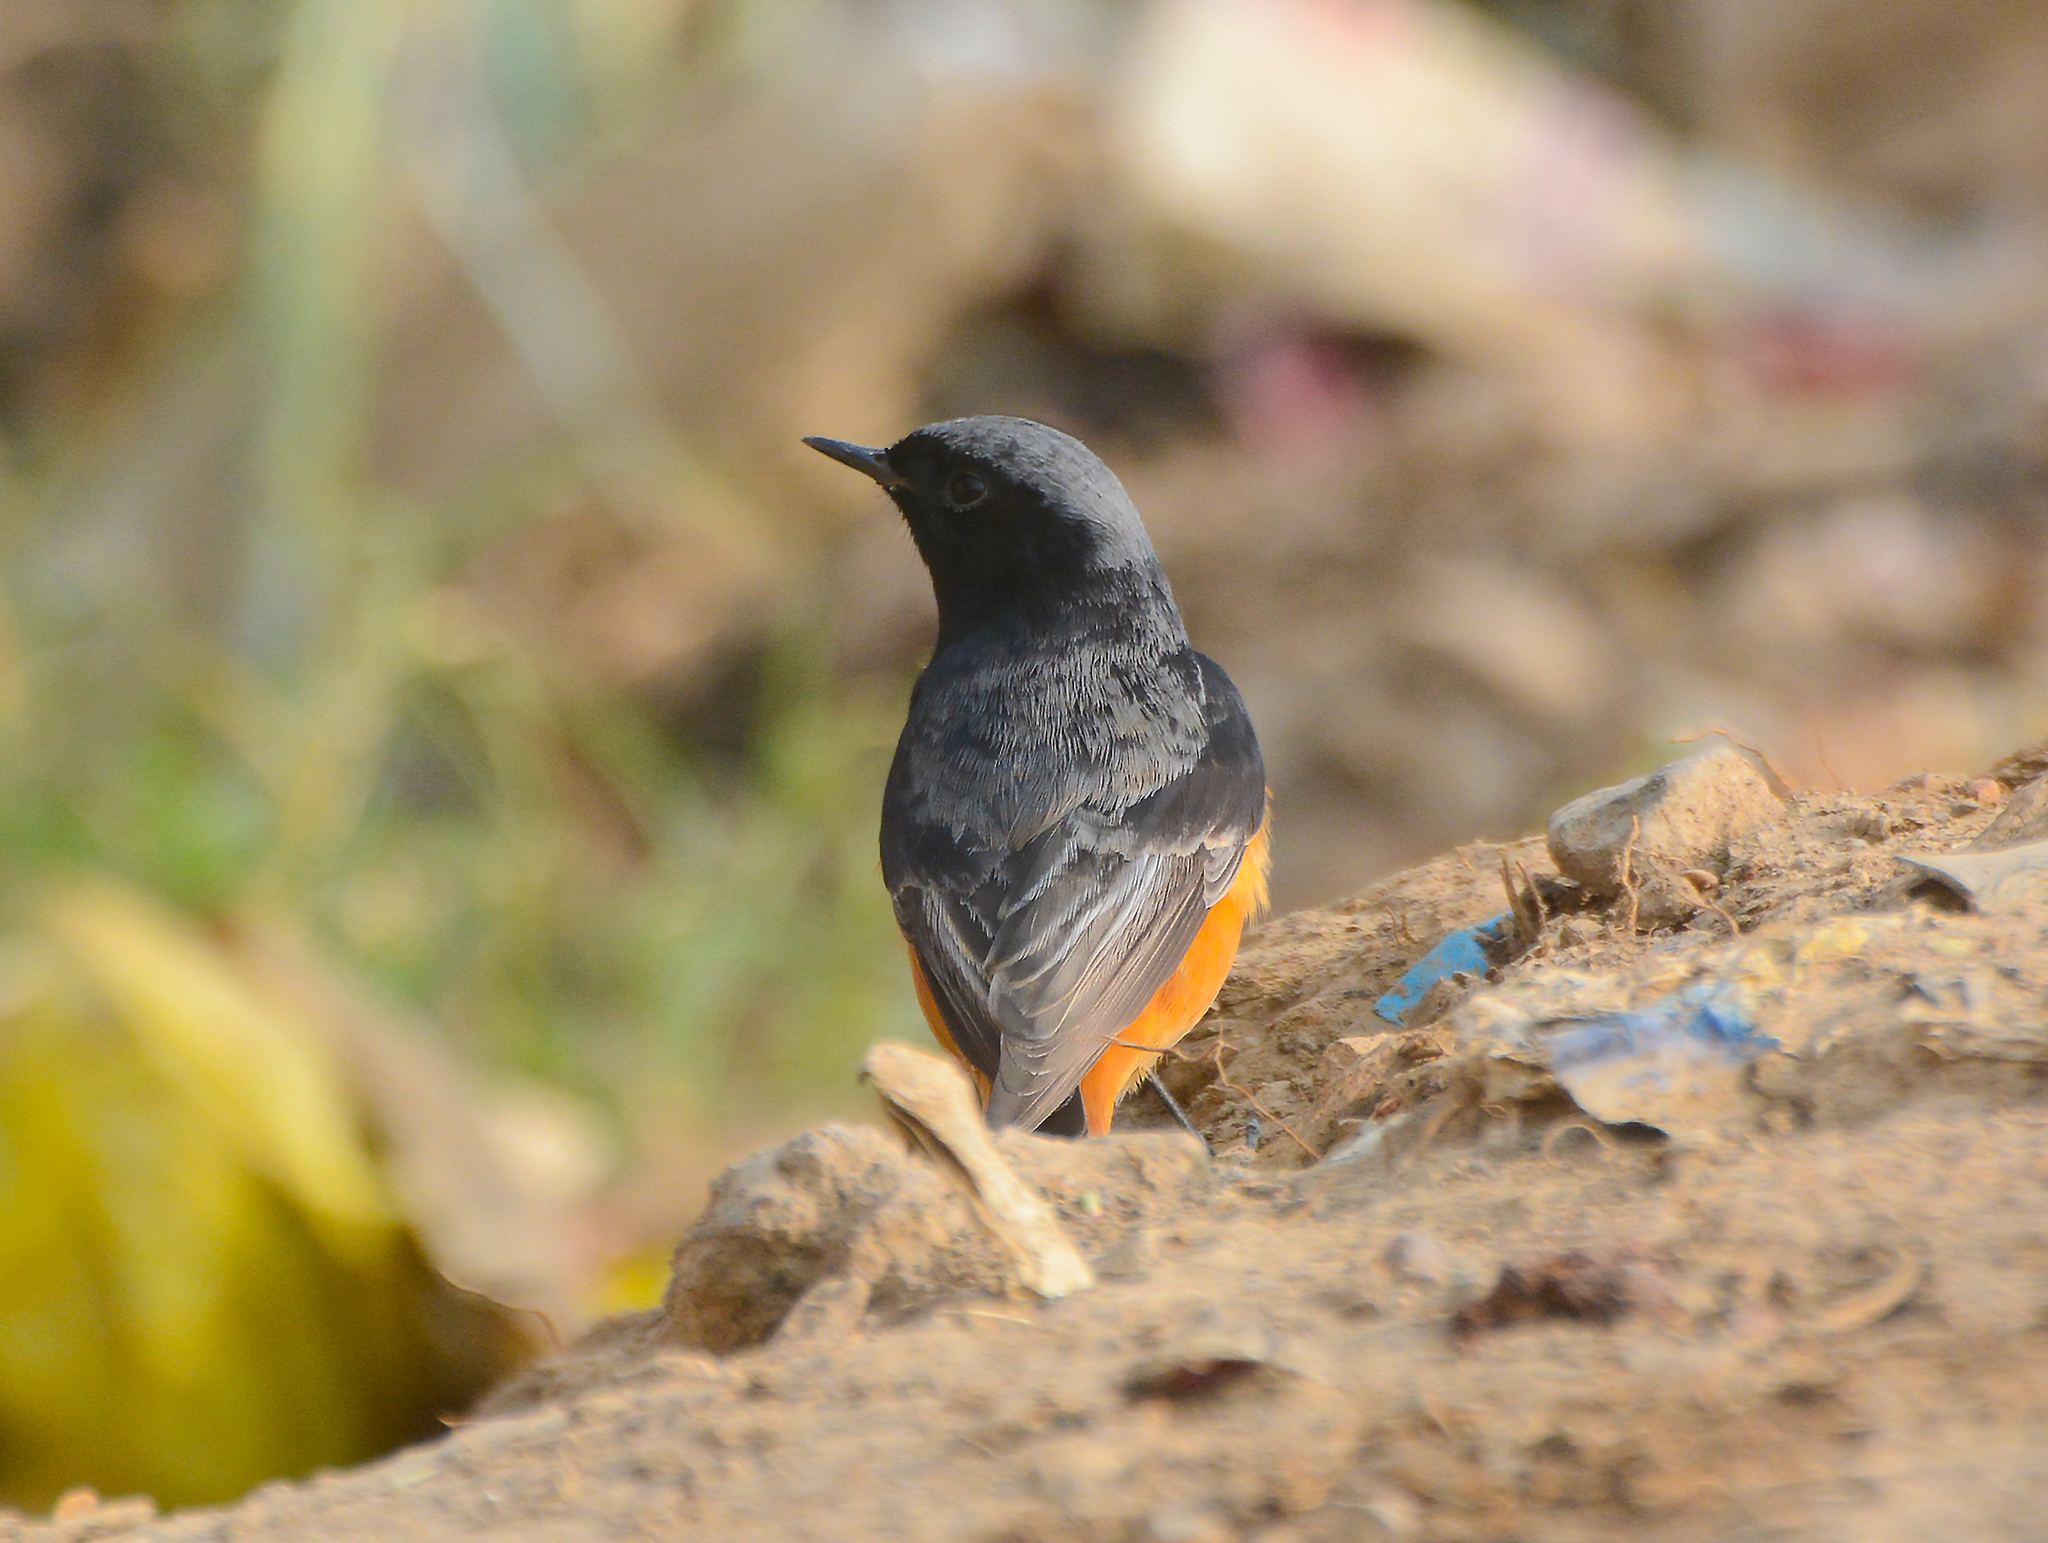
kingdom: Animalia
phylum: Chordata
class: Aves
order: Passeriformes
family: Muscicapidae
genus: Phoenicurus
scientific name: Phoenicurus ochruros
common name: Black redstart
